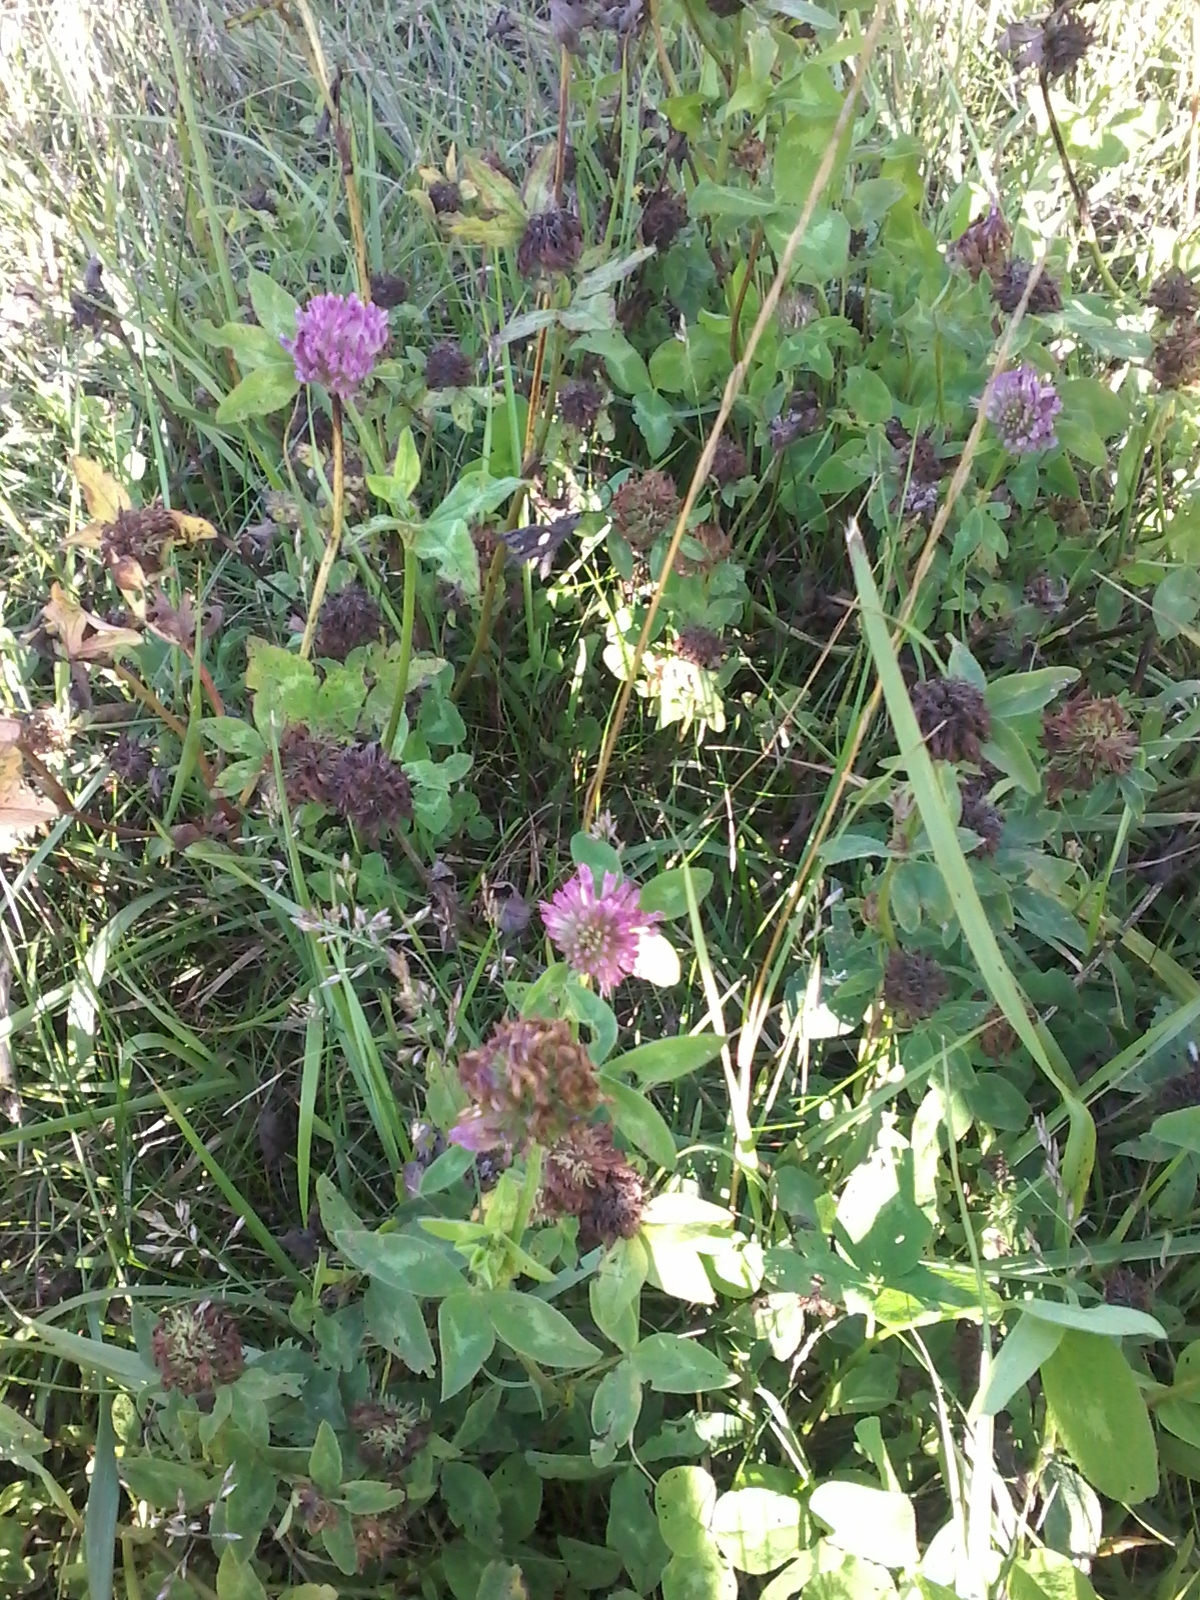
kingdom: Plantae
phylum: Tracheophyta
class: Magnoliopsida
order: Fabales
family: Fabaceae
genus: Trifolium
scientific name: Trifolium pratense
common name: Red clover
